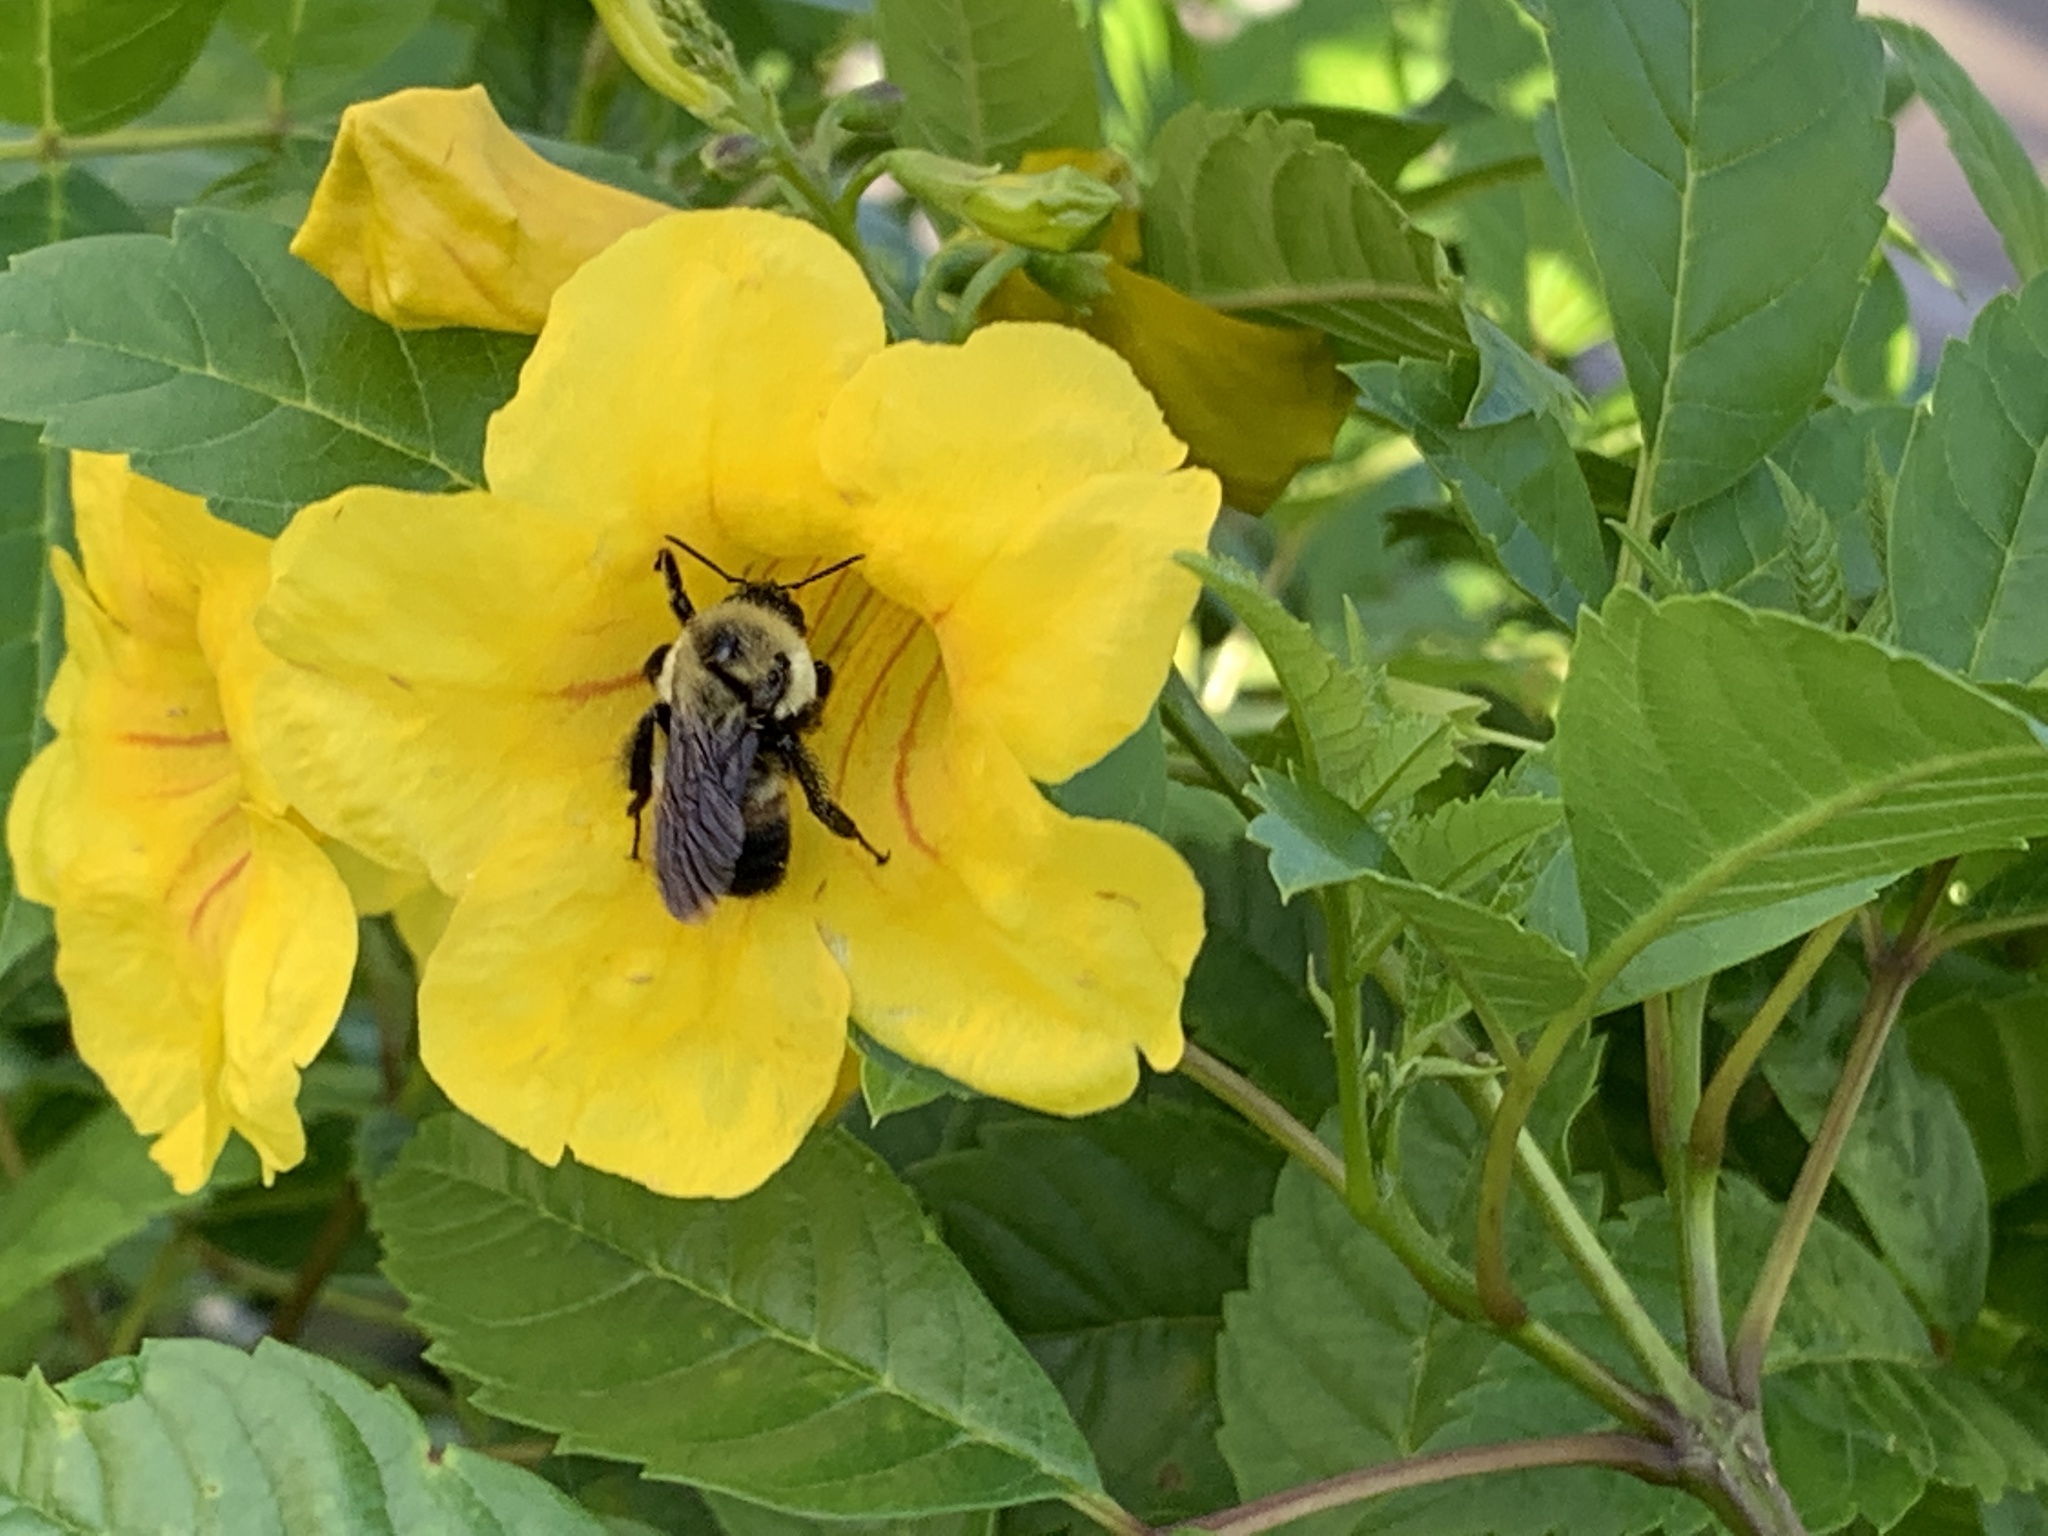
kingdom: Animalia
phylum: Arthropoda
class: Insecta
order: Hymenoptera
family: Apidae
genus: Bombus
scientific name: Bombus griseocollis
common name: Brown-belted bumble bee
